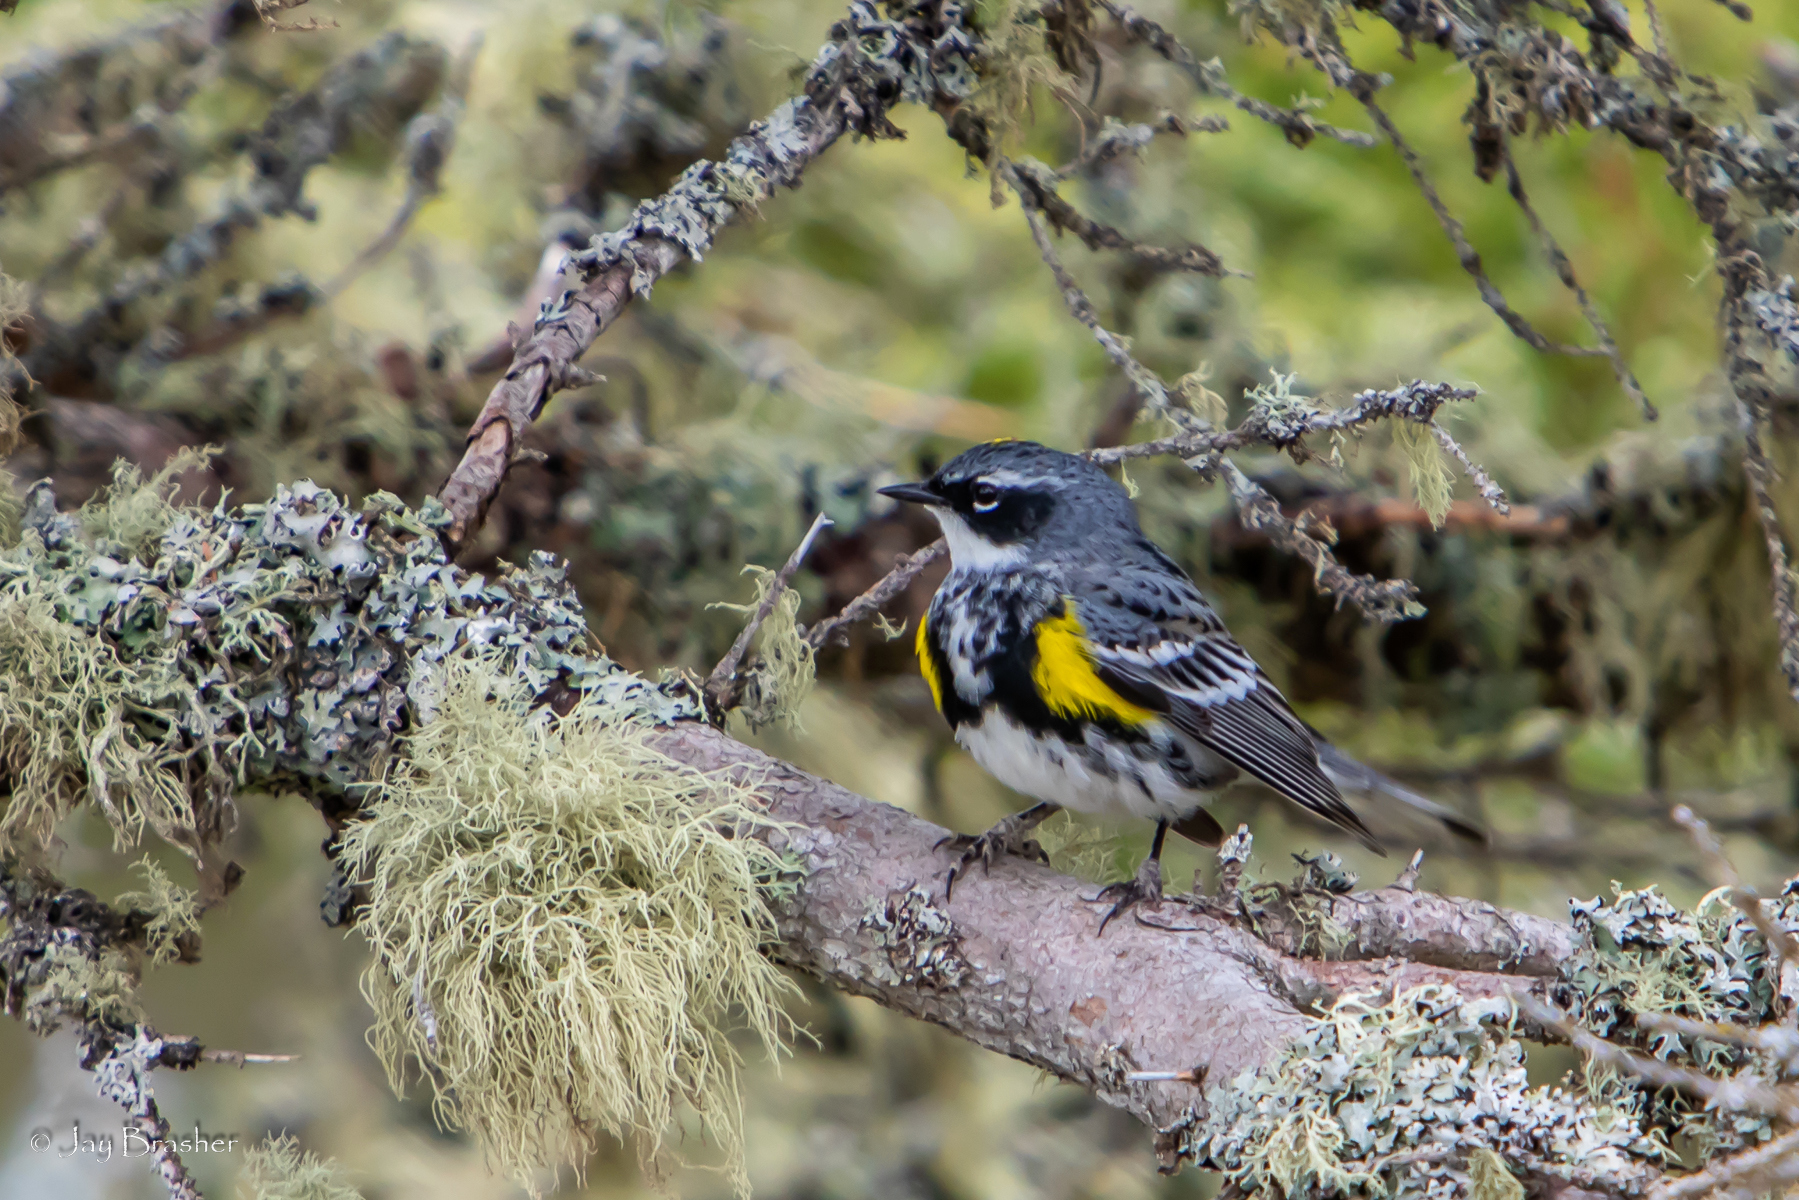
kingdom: Animalia
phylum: Chordata
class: Aves
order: Passeriformes
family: Parulidae
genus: Setophaga
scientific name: Setophaga coronata
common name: Myrtle warbler
